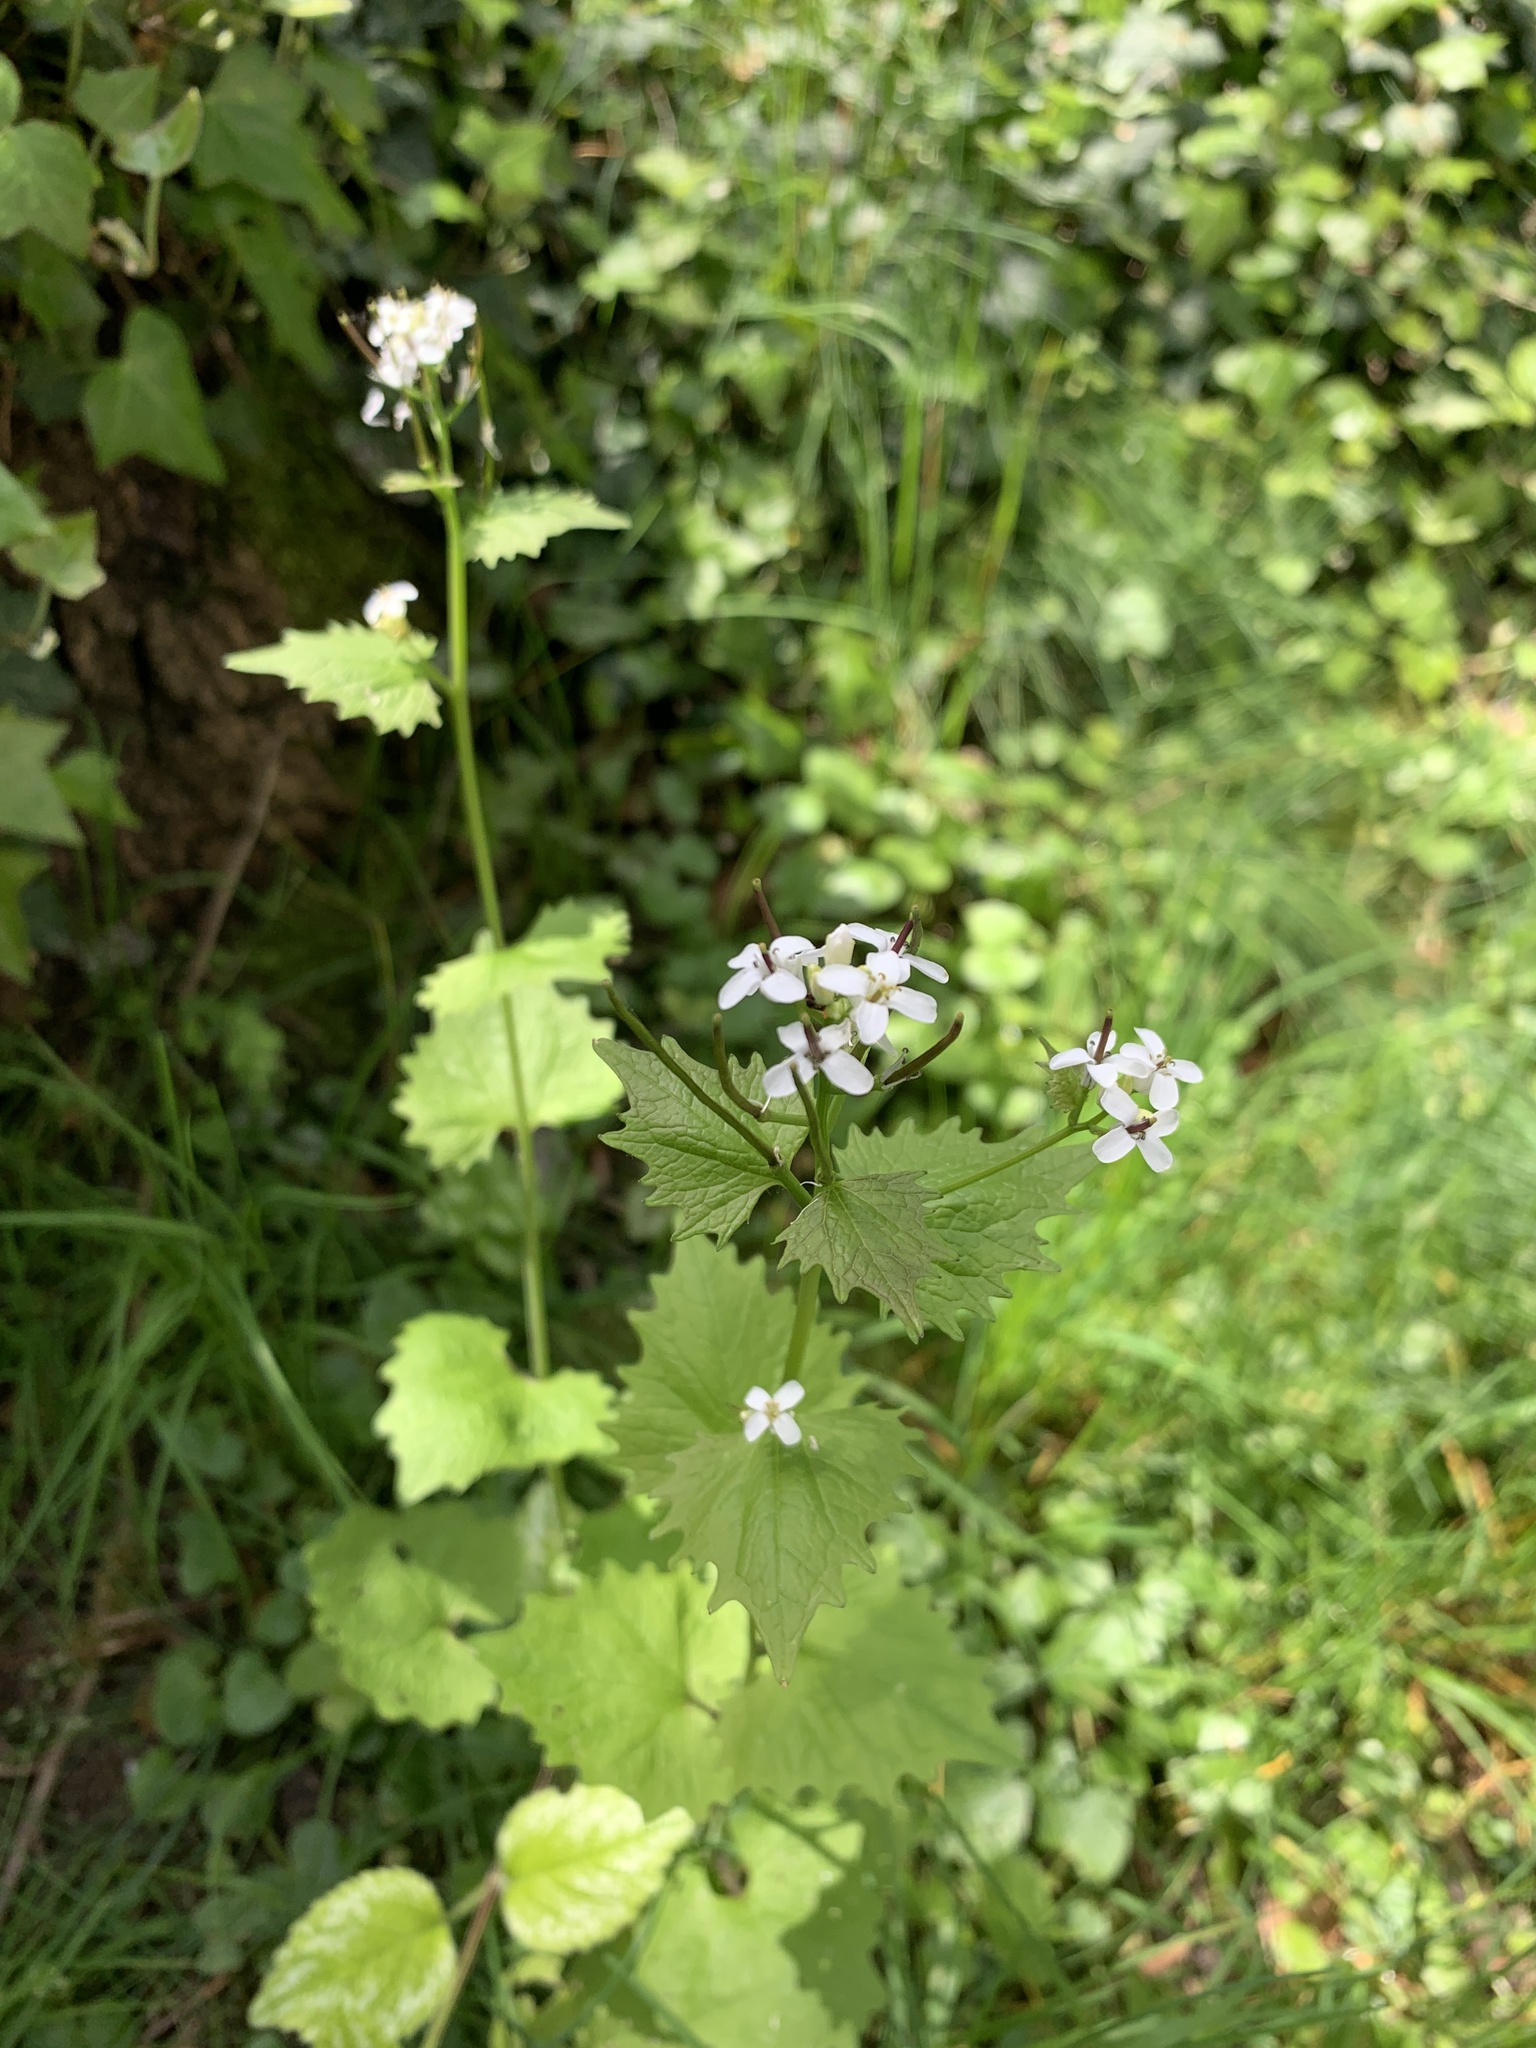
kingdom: Plantae
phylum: Tracheophyta
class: Magnoliopsida
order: Brassicales
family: Brassicaceae
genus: Alliaria
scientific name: Alliaria petiolata
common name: Garlic mustard
